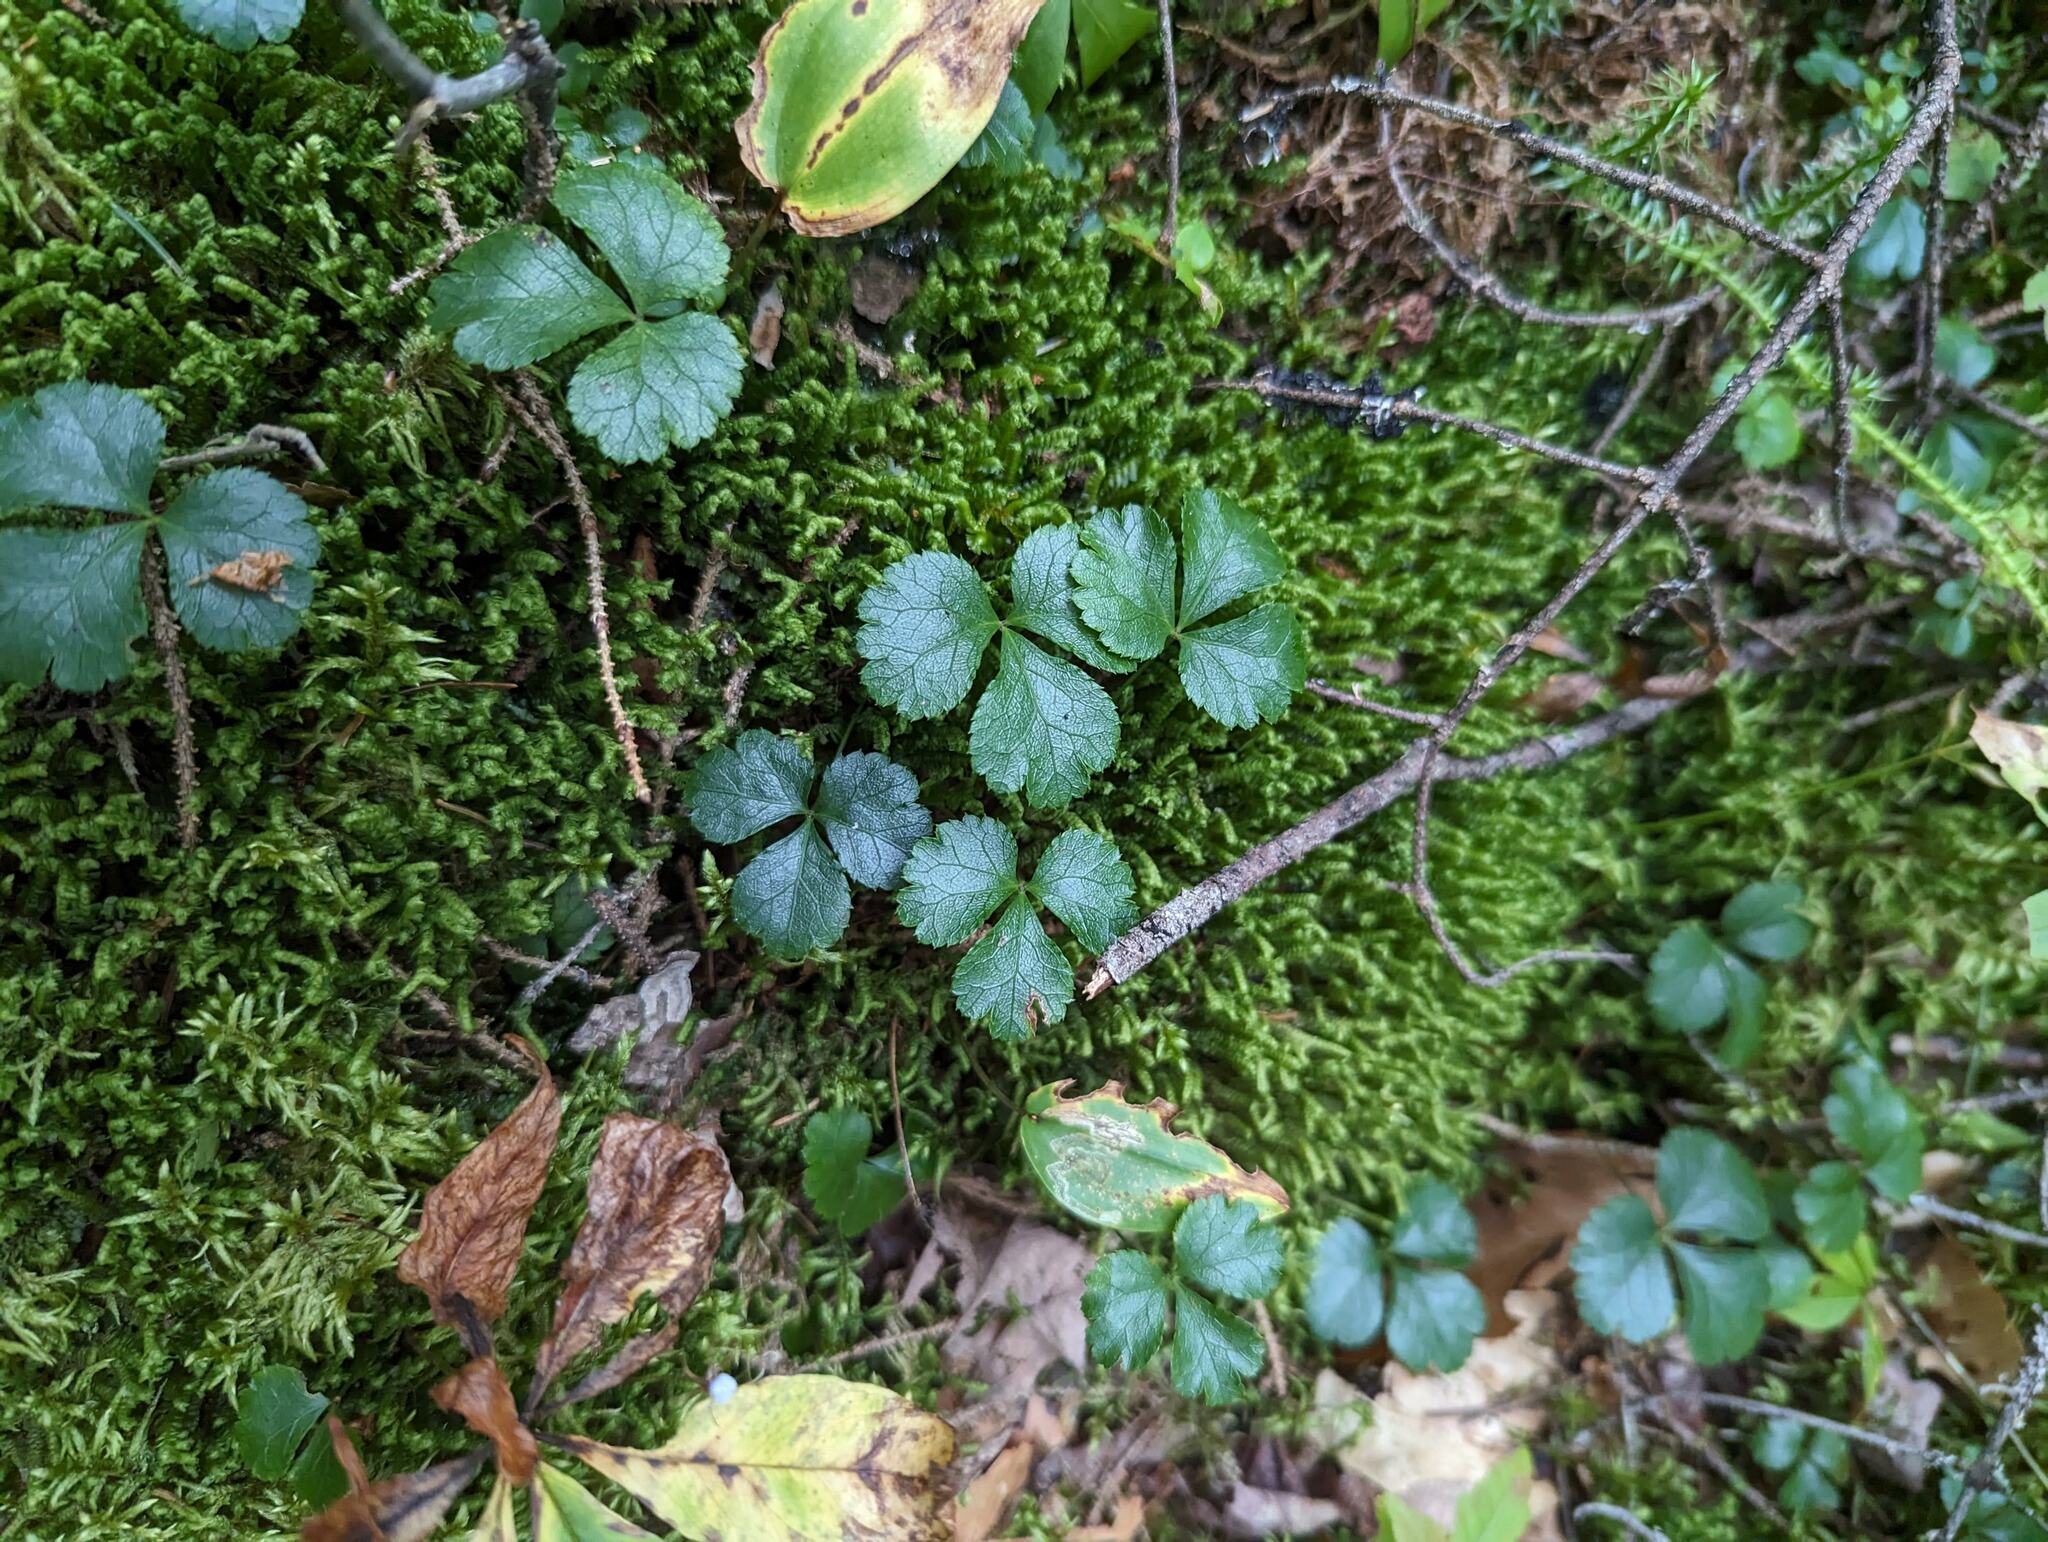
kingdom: Plantae
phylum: Tracheophyta
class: Magnoliopsida
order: Ranunculales
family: Ranunculaceae
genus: Coptis
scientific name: Coptis trifolia
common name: Canker-root
